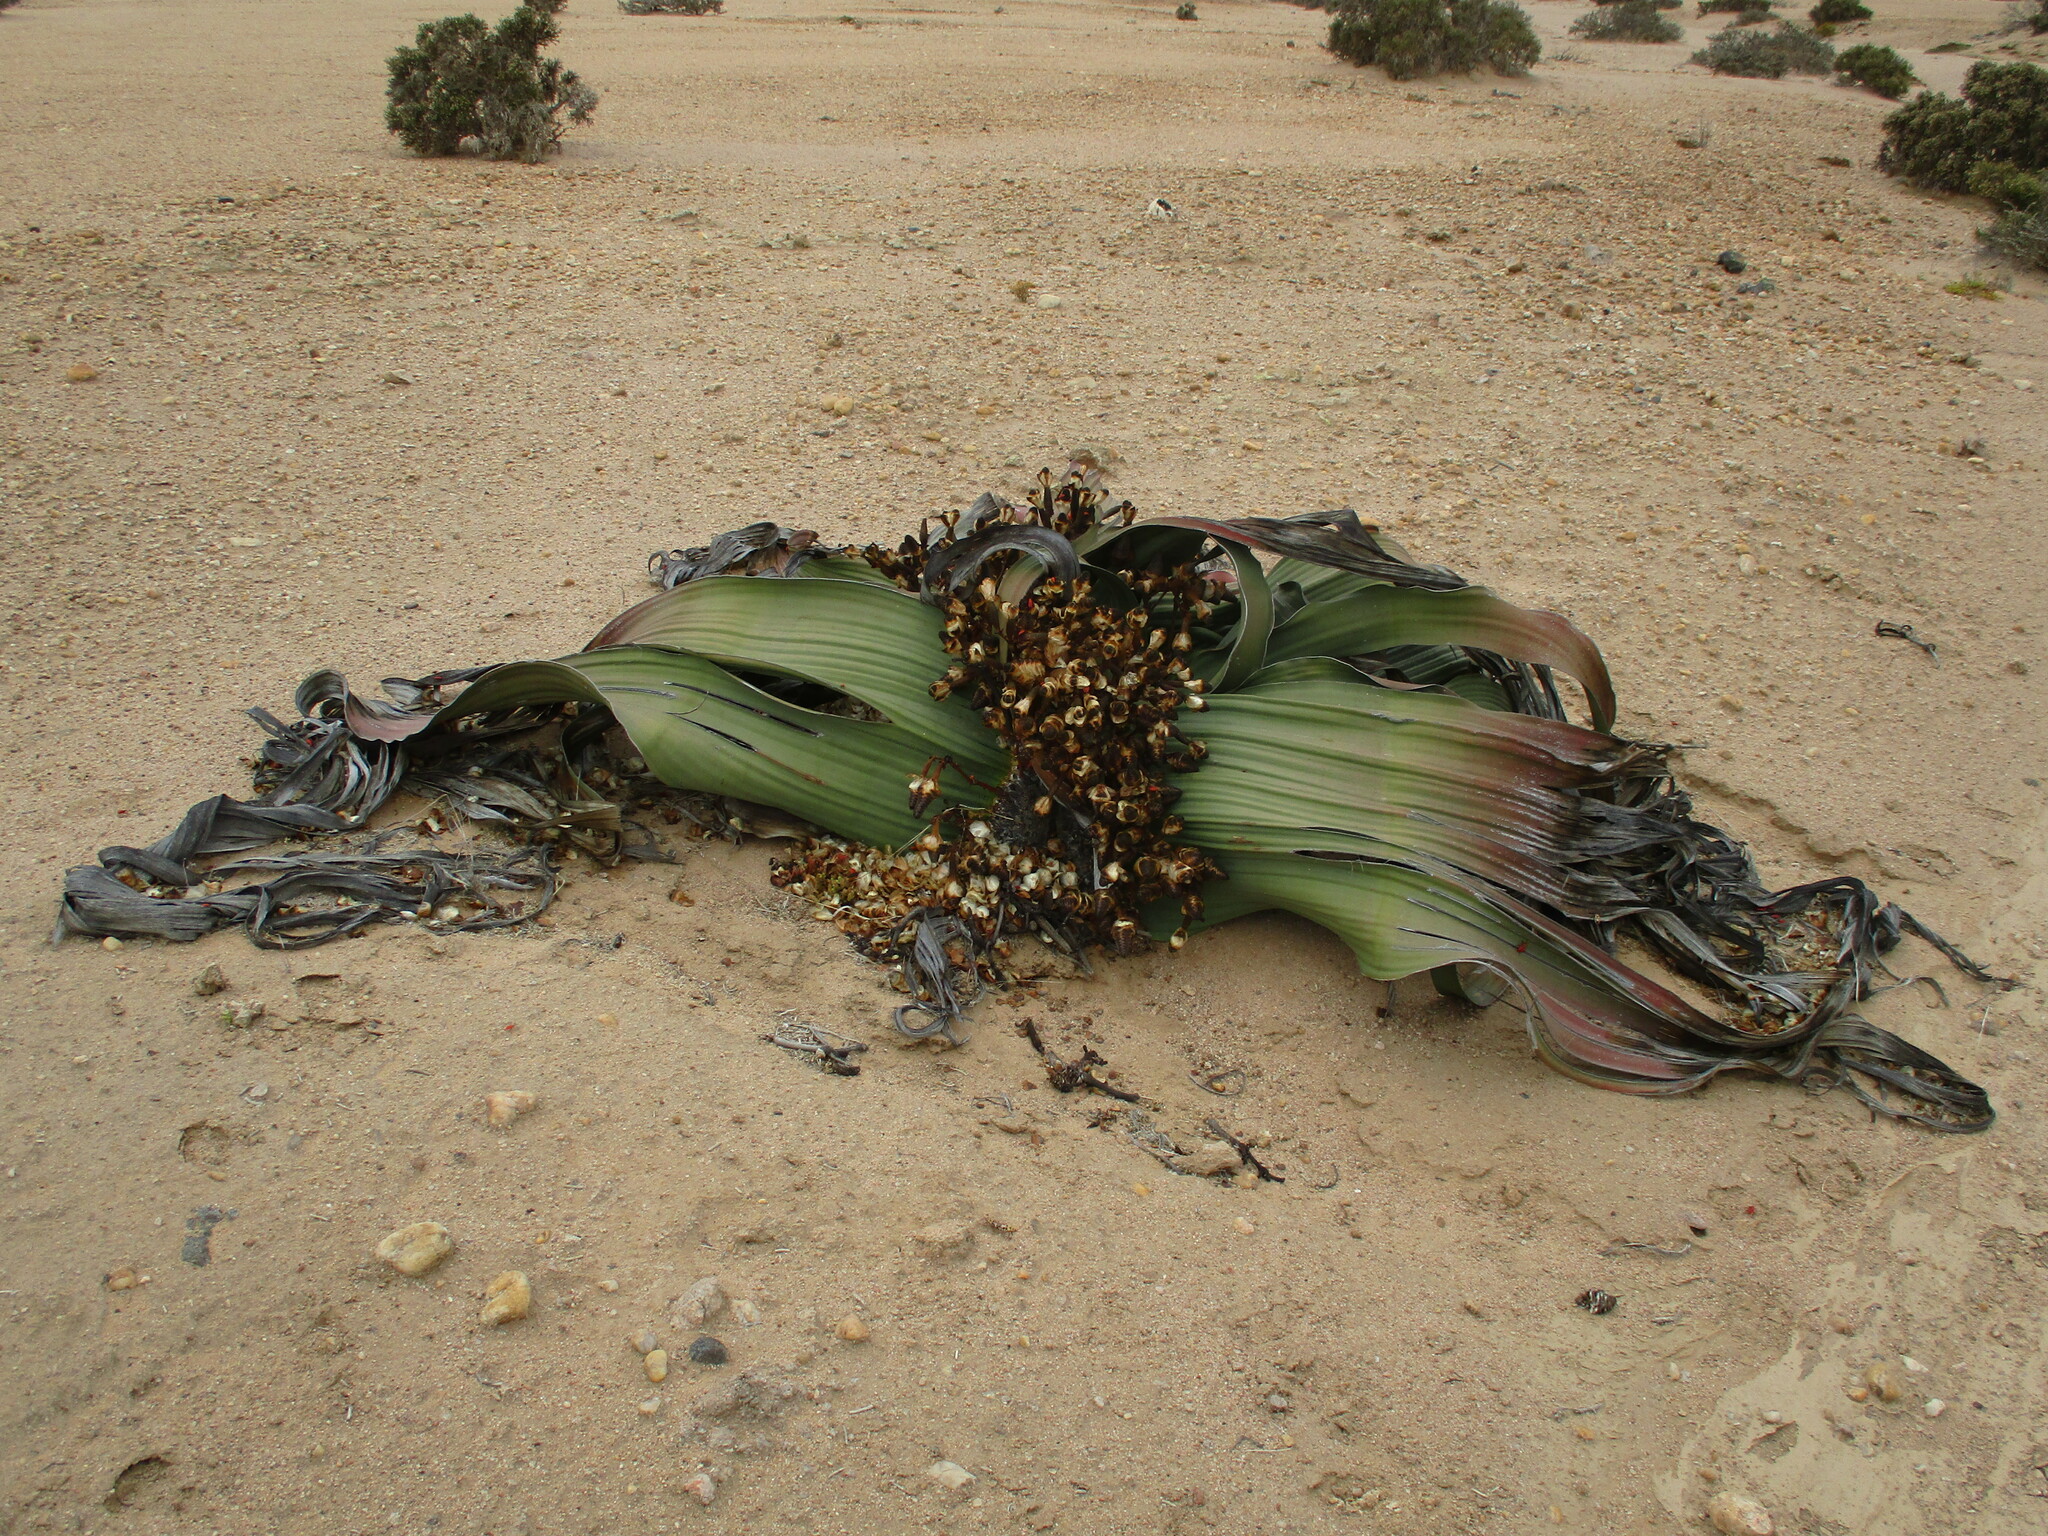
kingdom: Plantae
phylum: Tracheophyta
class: Gnetopsida
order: Welwitschiales
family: Welwitschiaceae
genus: Welwitschia
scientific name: Welwitschia mirabilis
